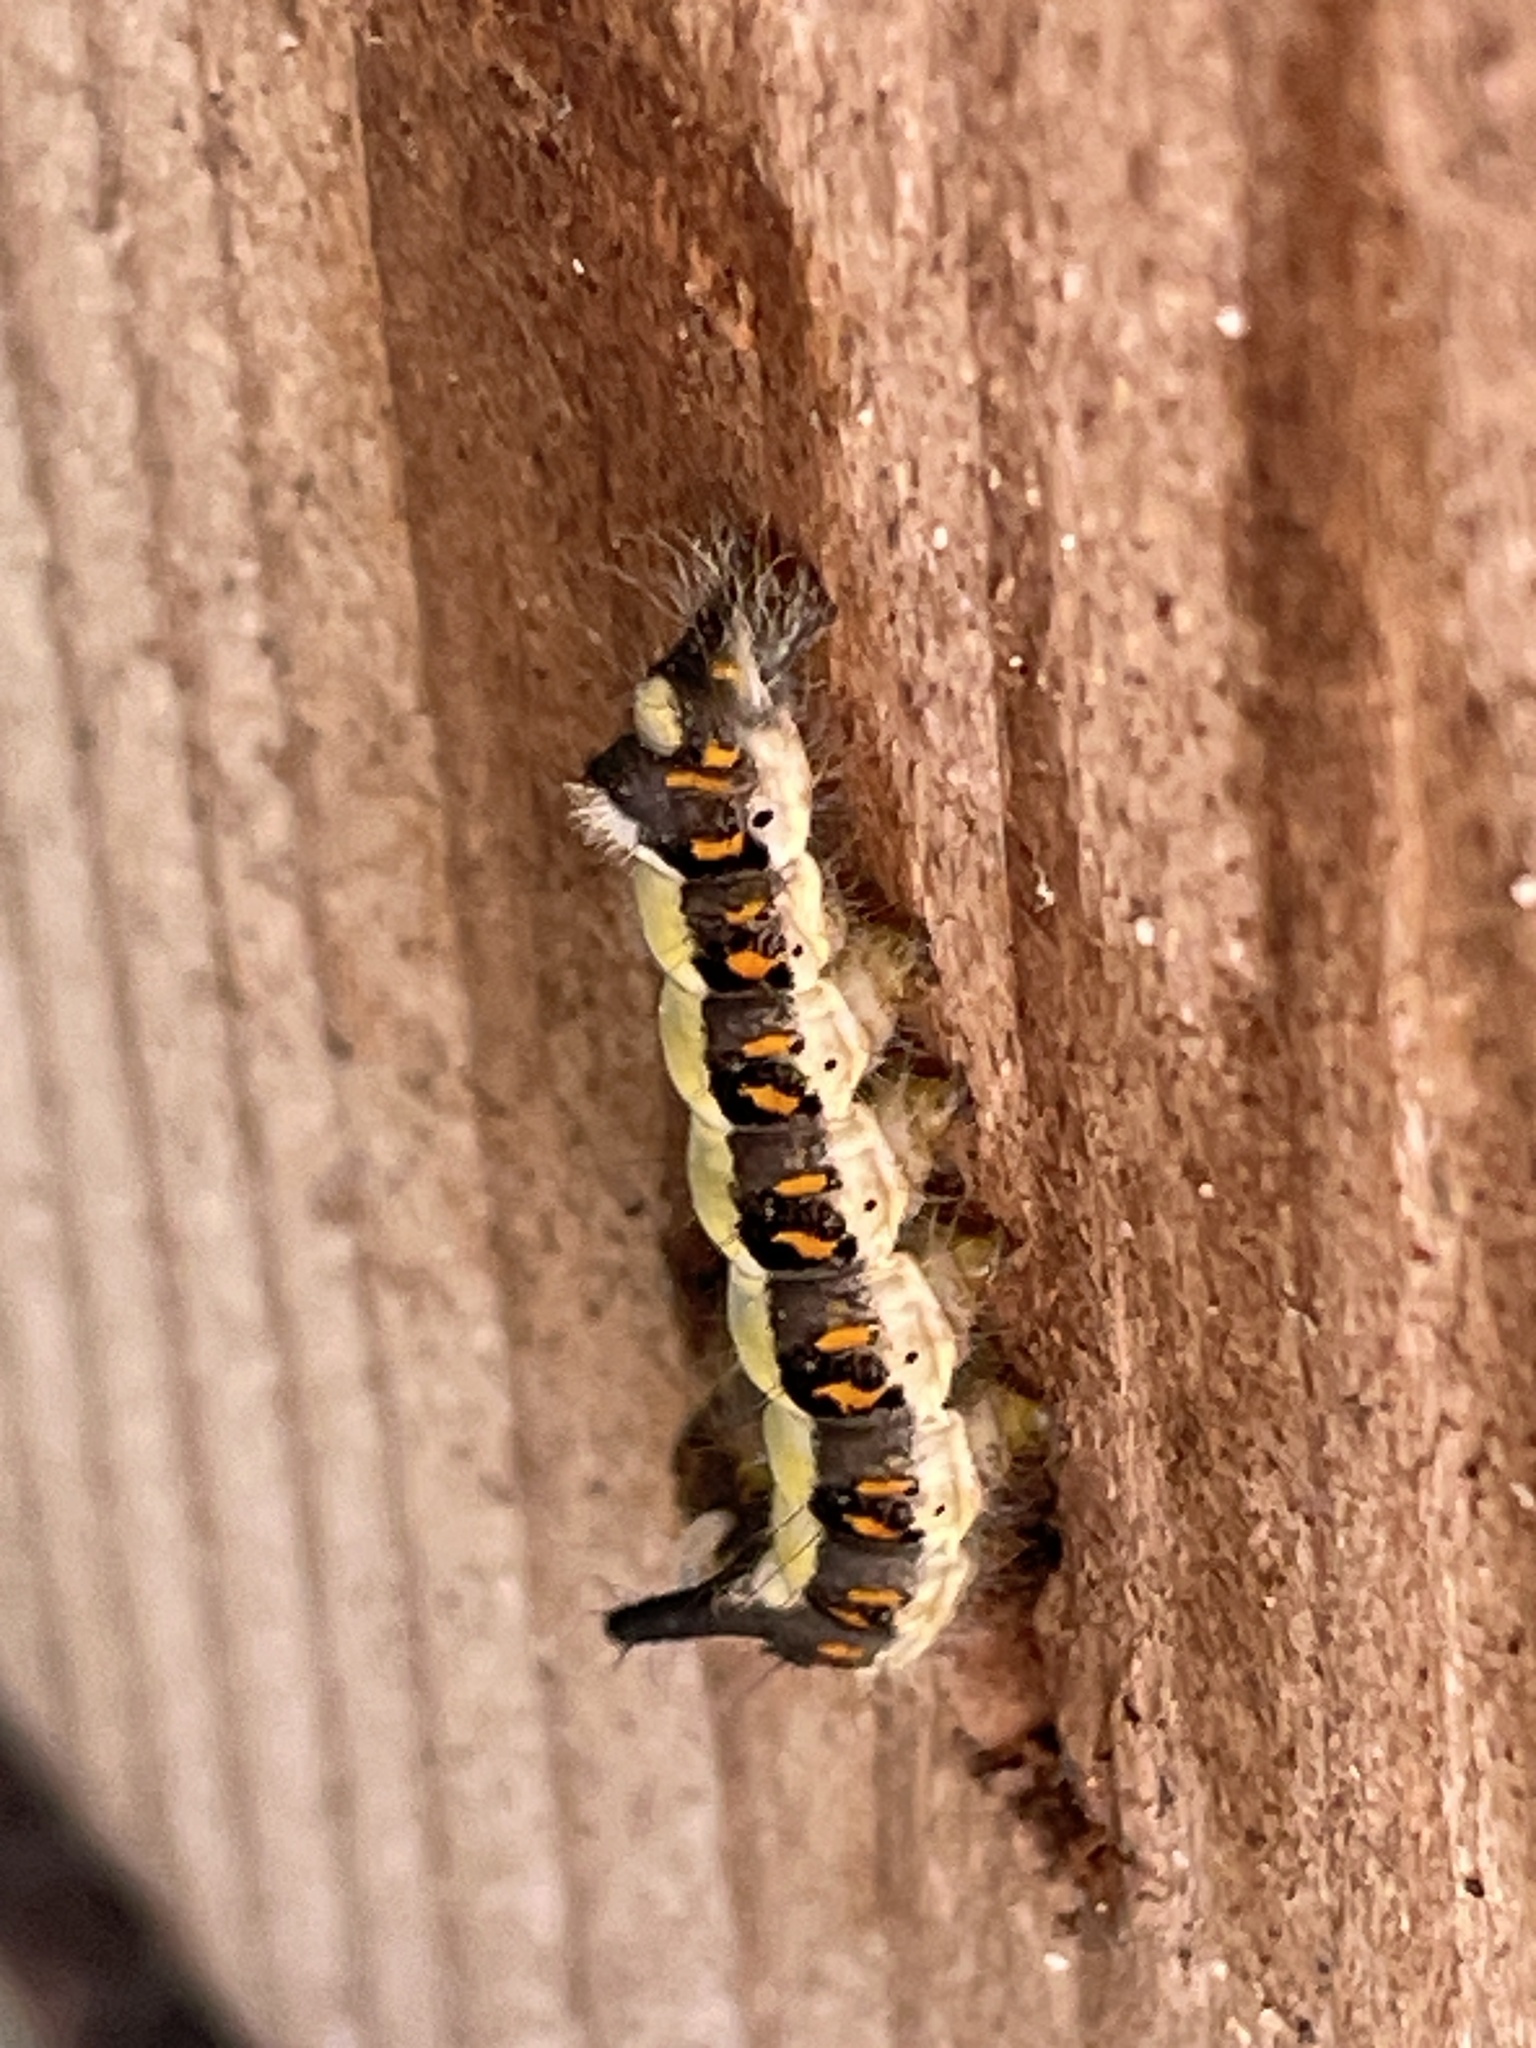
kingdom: Animalia
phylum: Arthropoda
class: Insecta
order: Lepidoptera
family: Noctuidae
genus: Acronicta
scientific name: Acronicta psi
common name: Grey dagger
